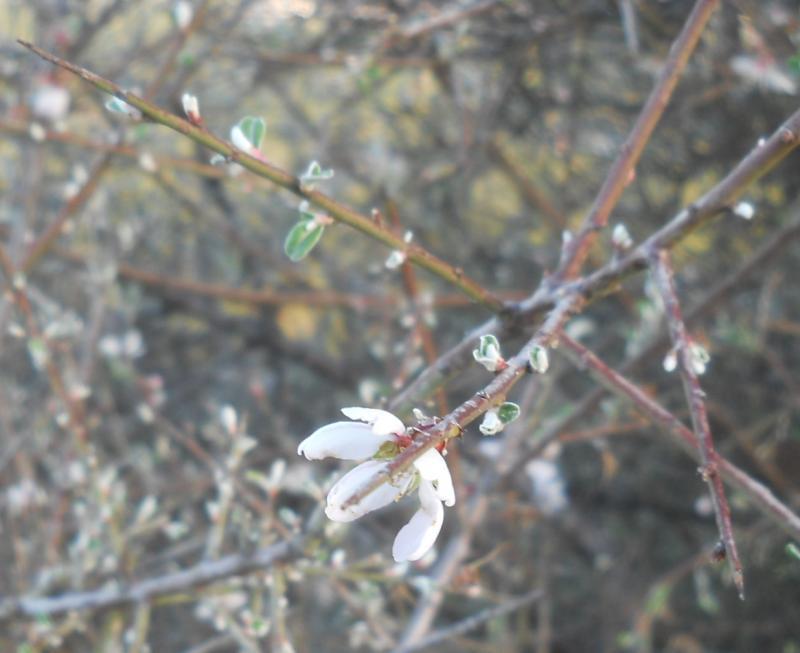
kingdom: Plantae
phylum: Tracheophyta
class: Magnoliopsida
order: Rosales
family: Rosaceae
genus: Prunus
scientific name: Prunus discolor
